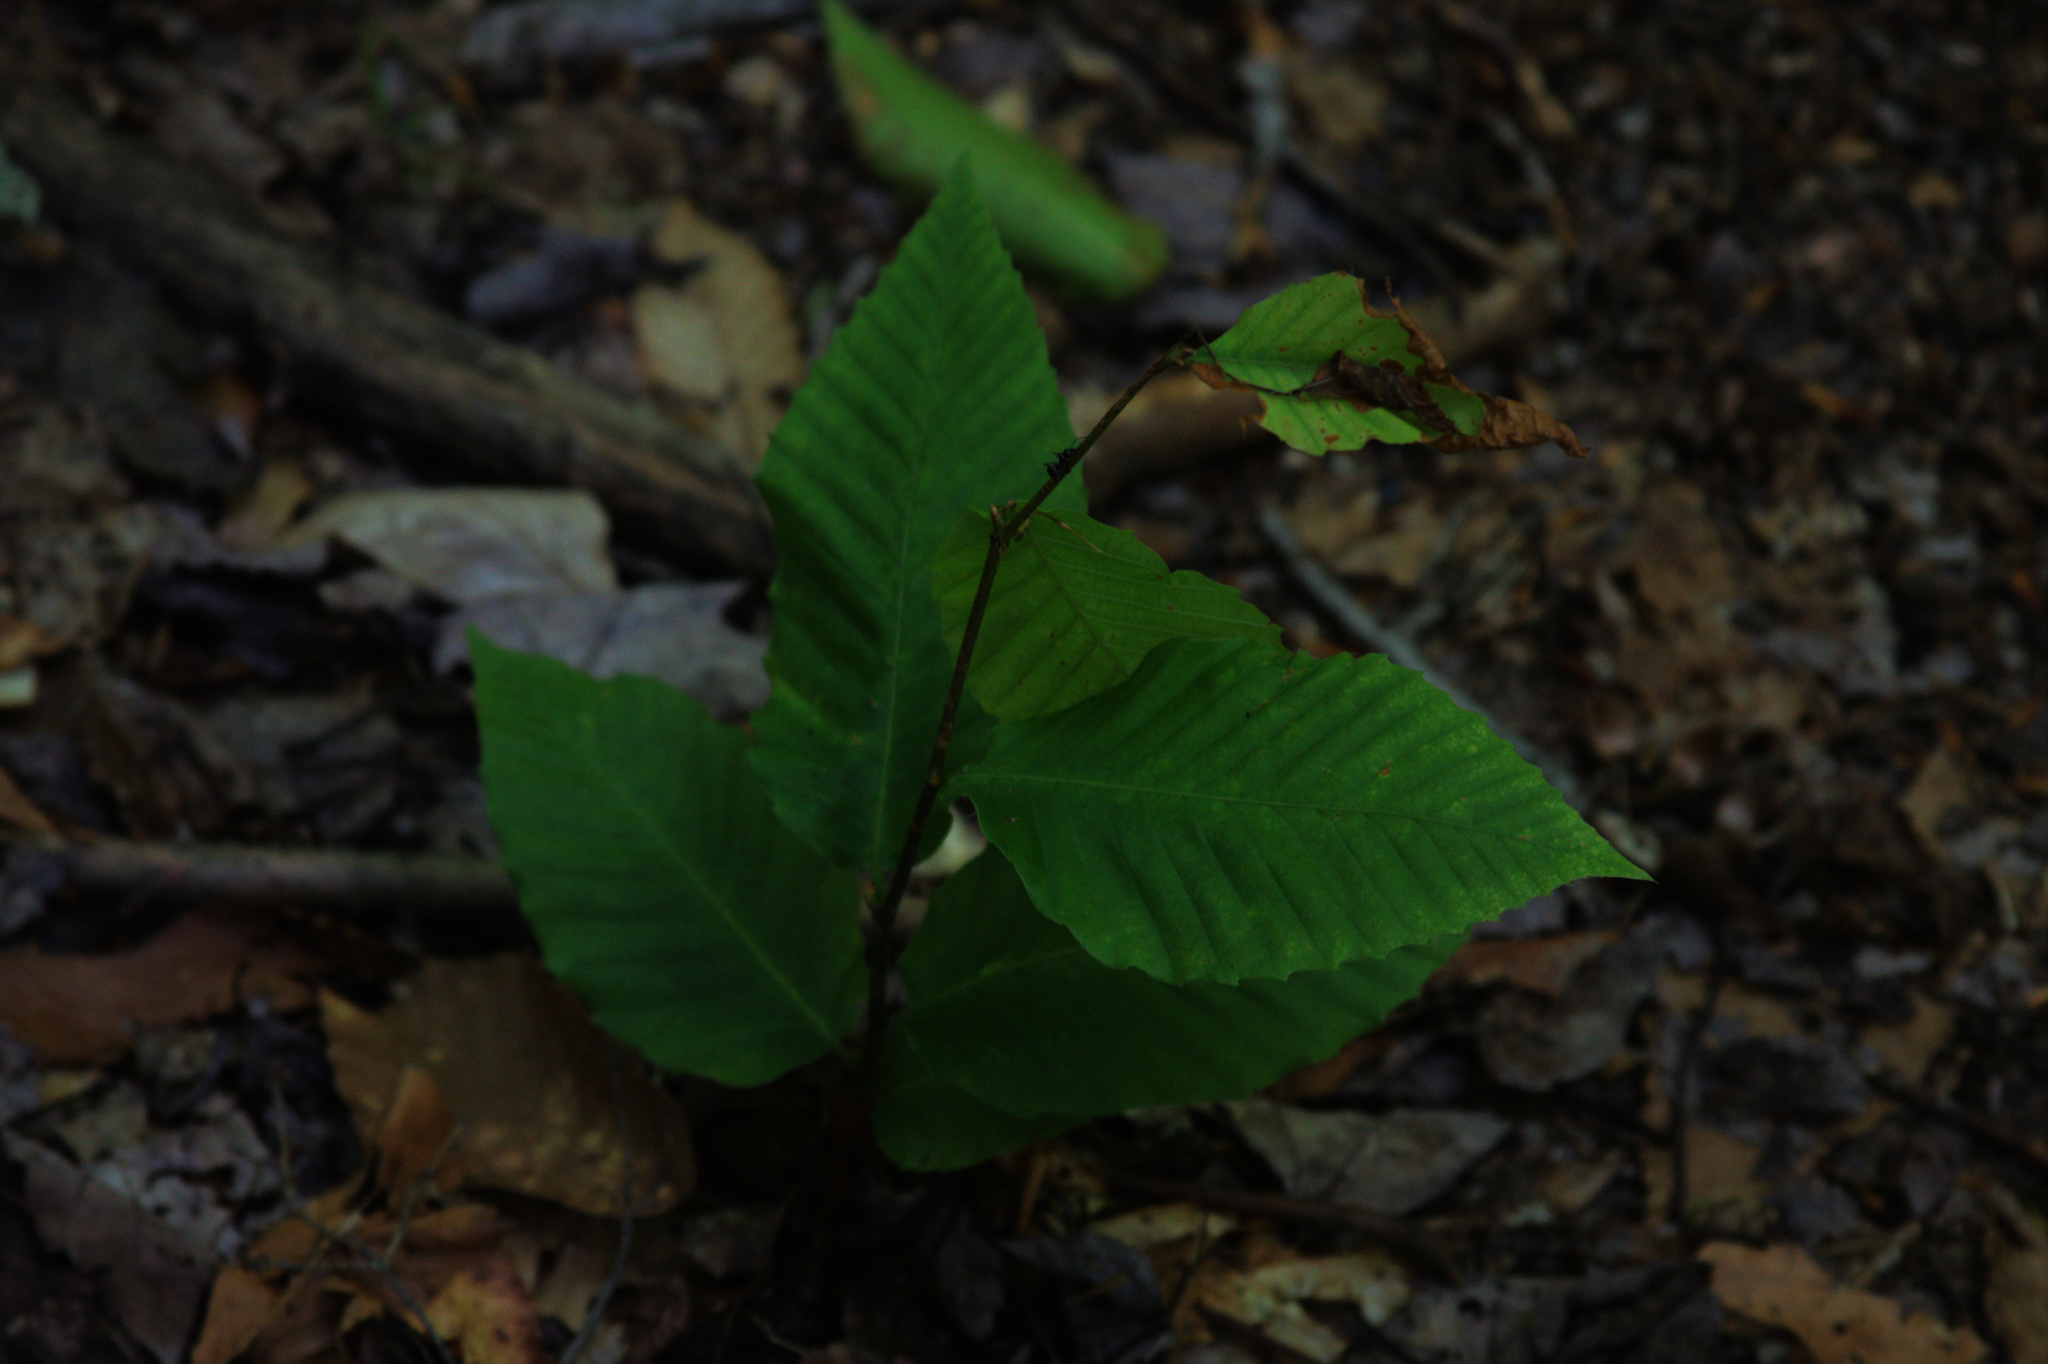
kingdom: Plantae
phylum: Tracheophyta
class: Magnoliopsida
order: Fagales
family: Fagaceae
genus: Fagus
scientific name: Fagus grandifolia
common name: American beech
